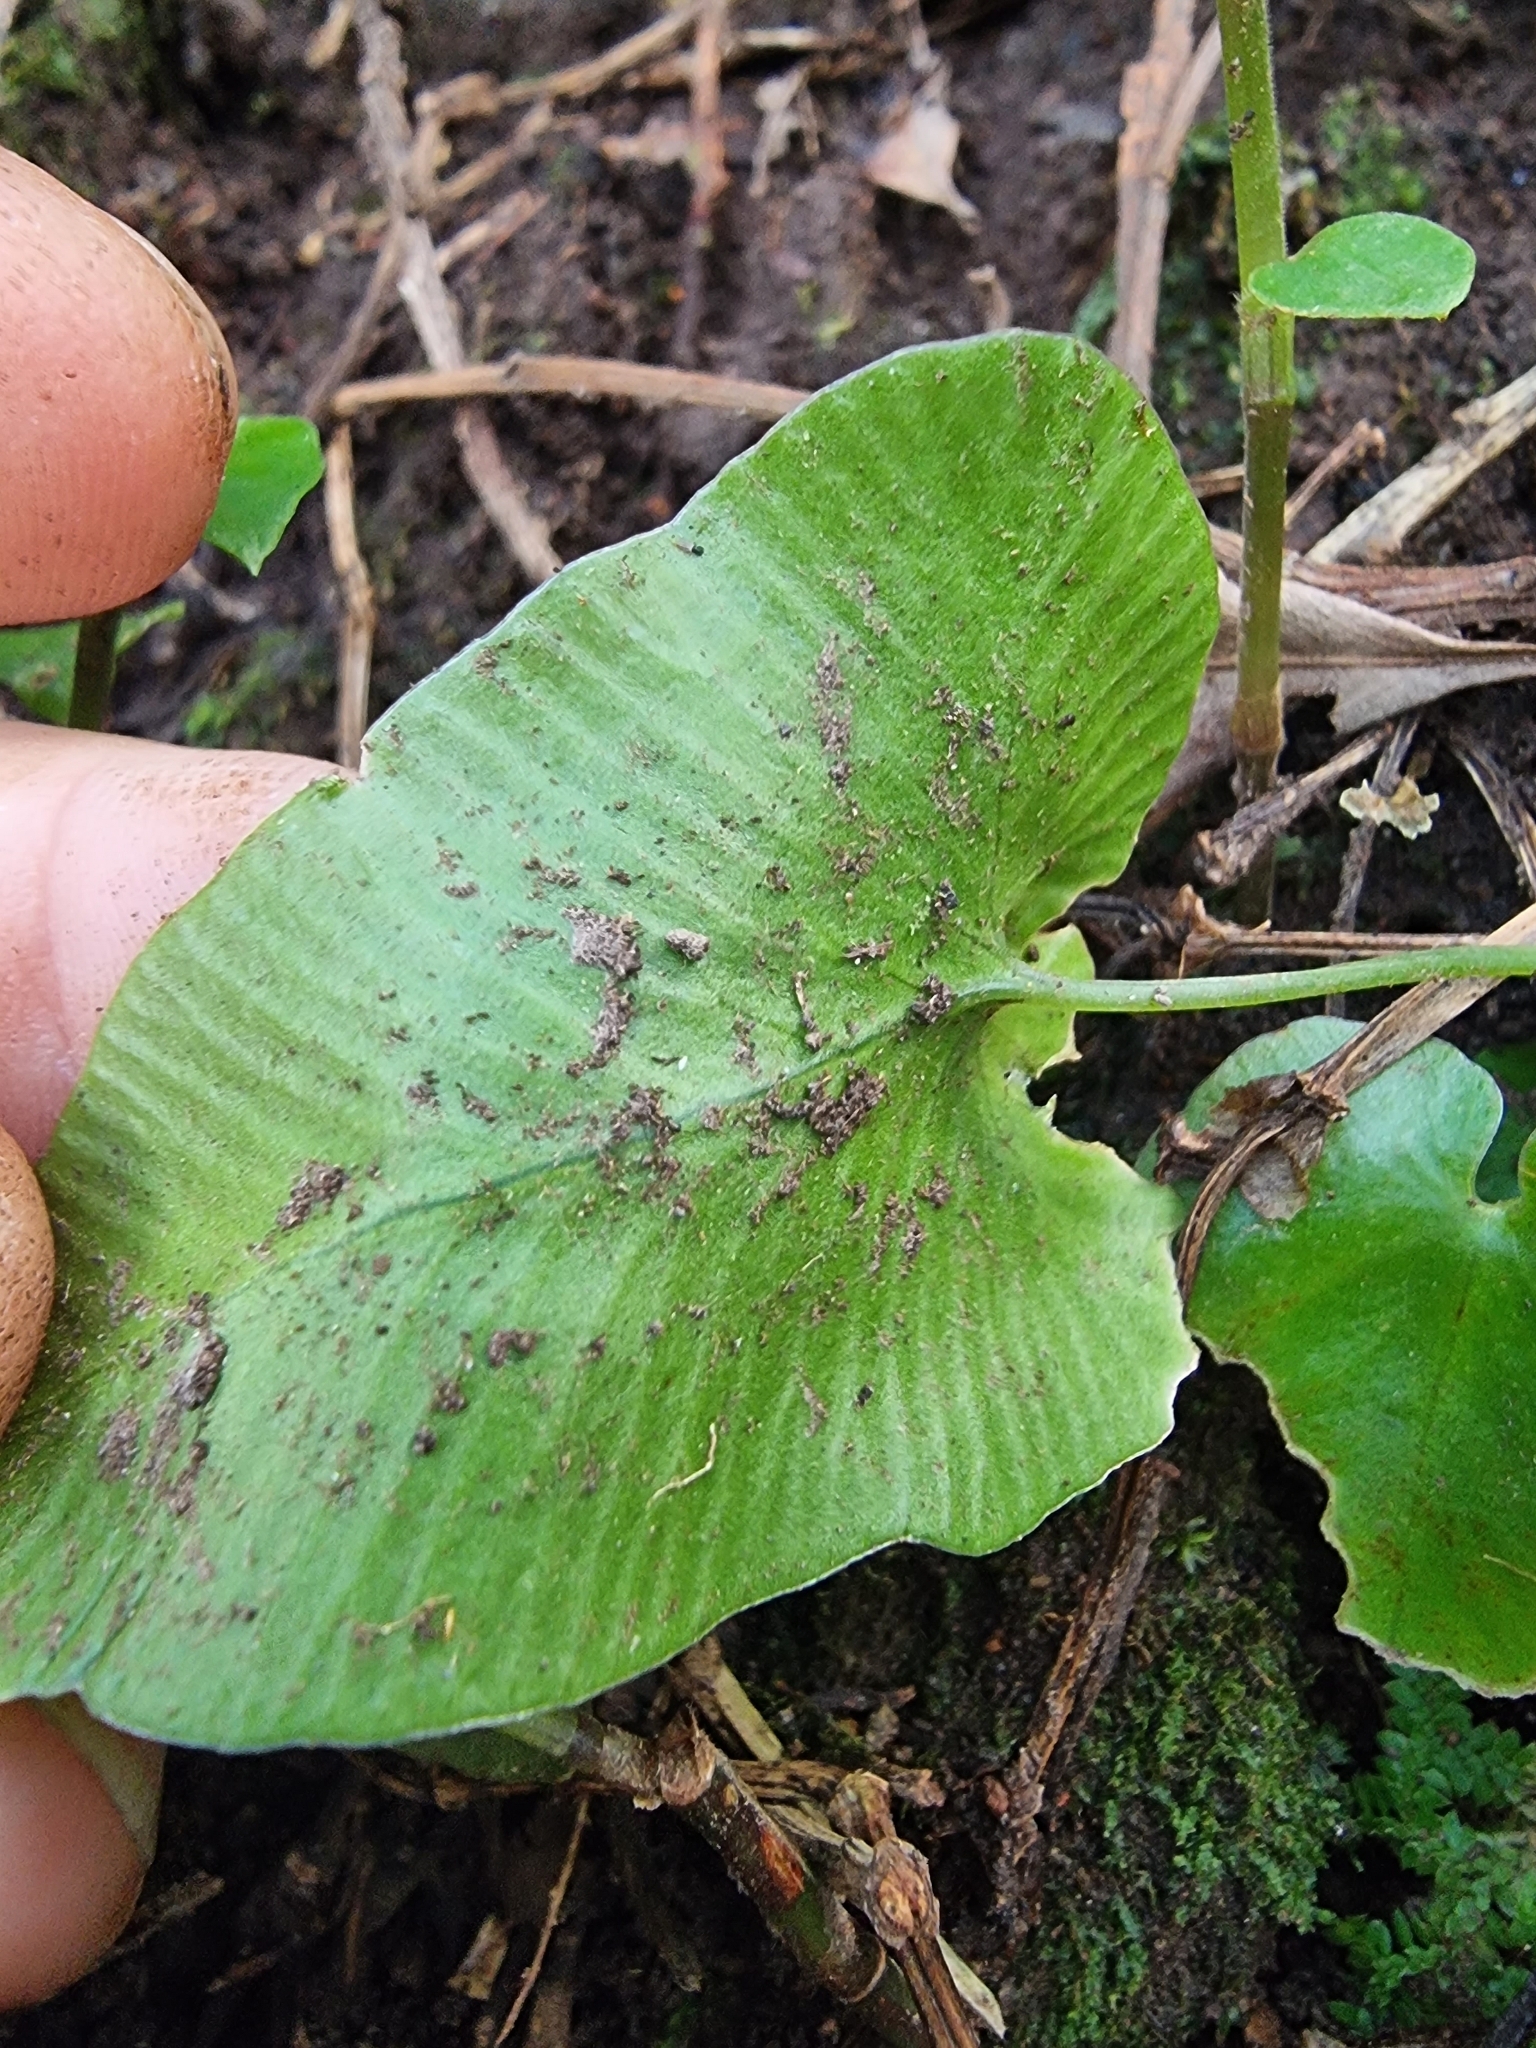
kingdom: Plantae
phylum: Tracheophyta
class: Polypodiopsida
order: Polypodiales
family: Aspleniaceae
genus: Asplenium
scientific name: Asplenium hemionitis
